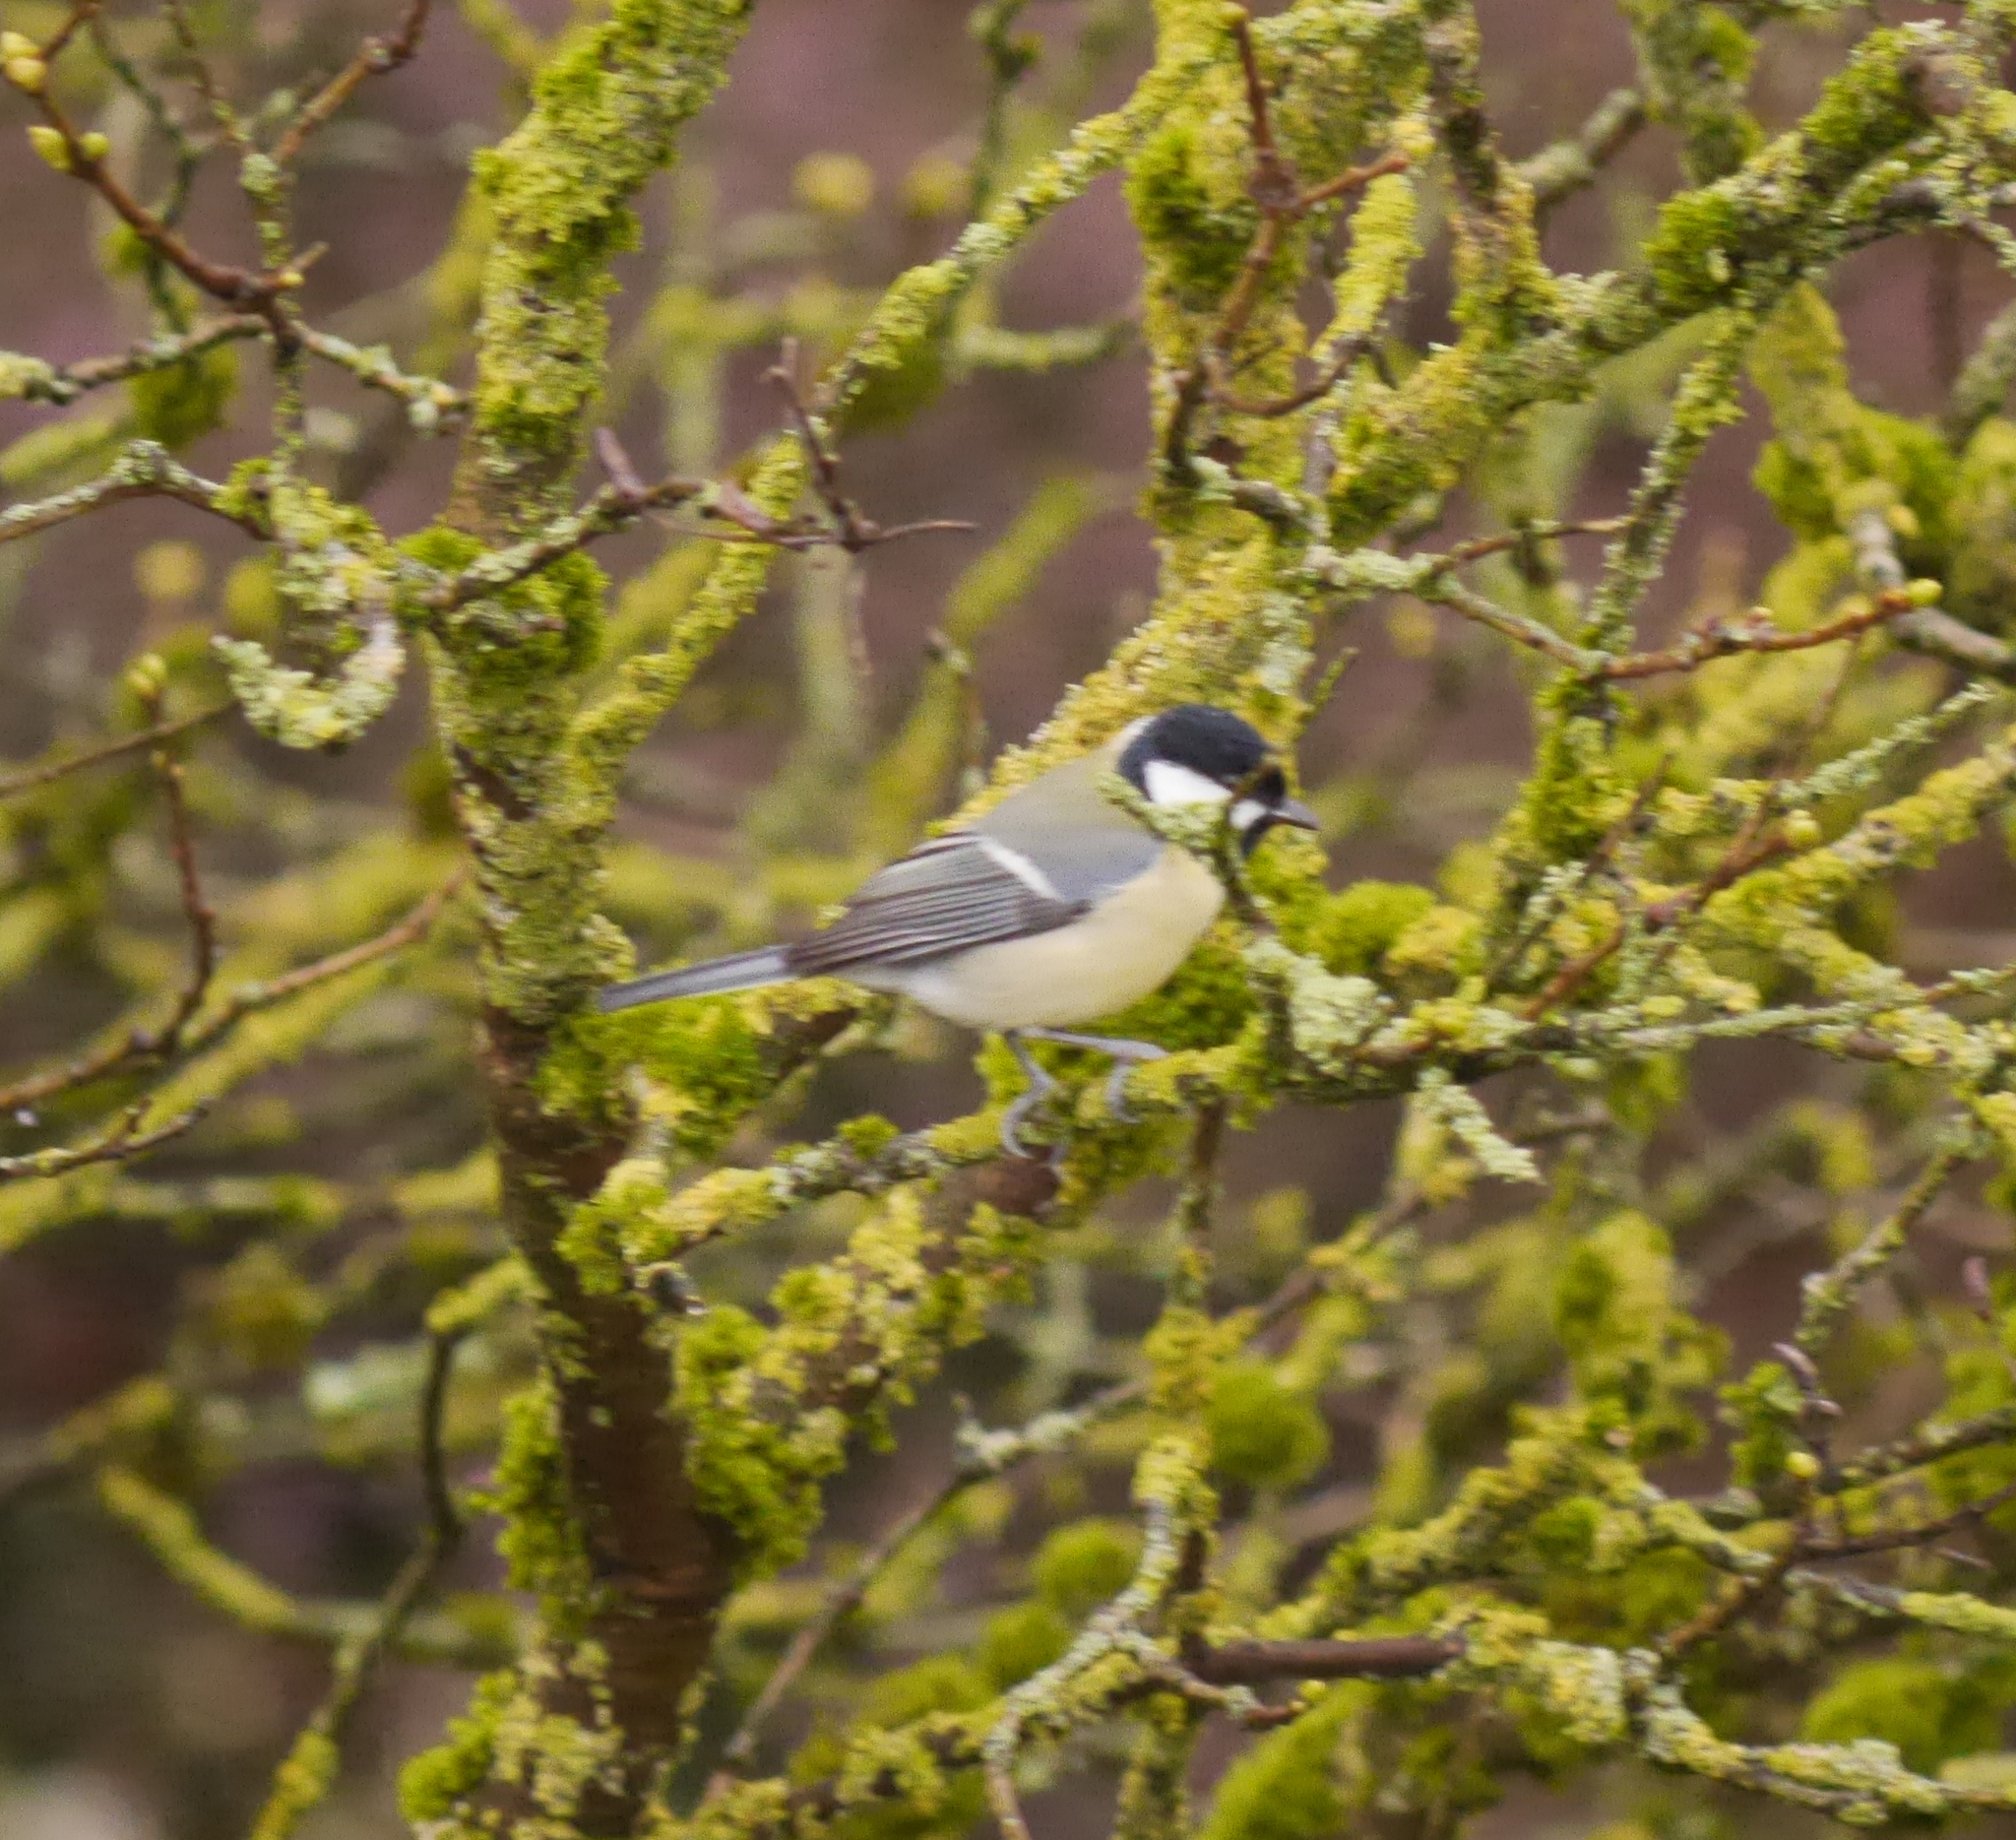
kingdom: Animalia
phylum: Chordata
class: Aves
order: Passeriformes
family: Paridae
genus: Parus
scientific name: Parus major
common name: Great tit
